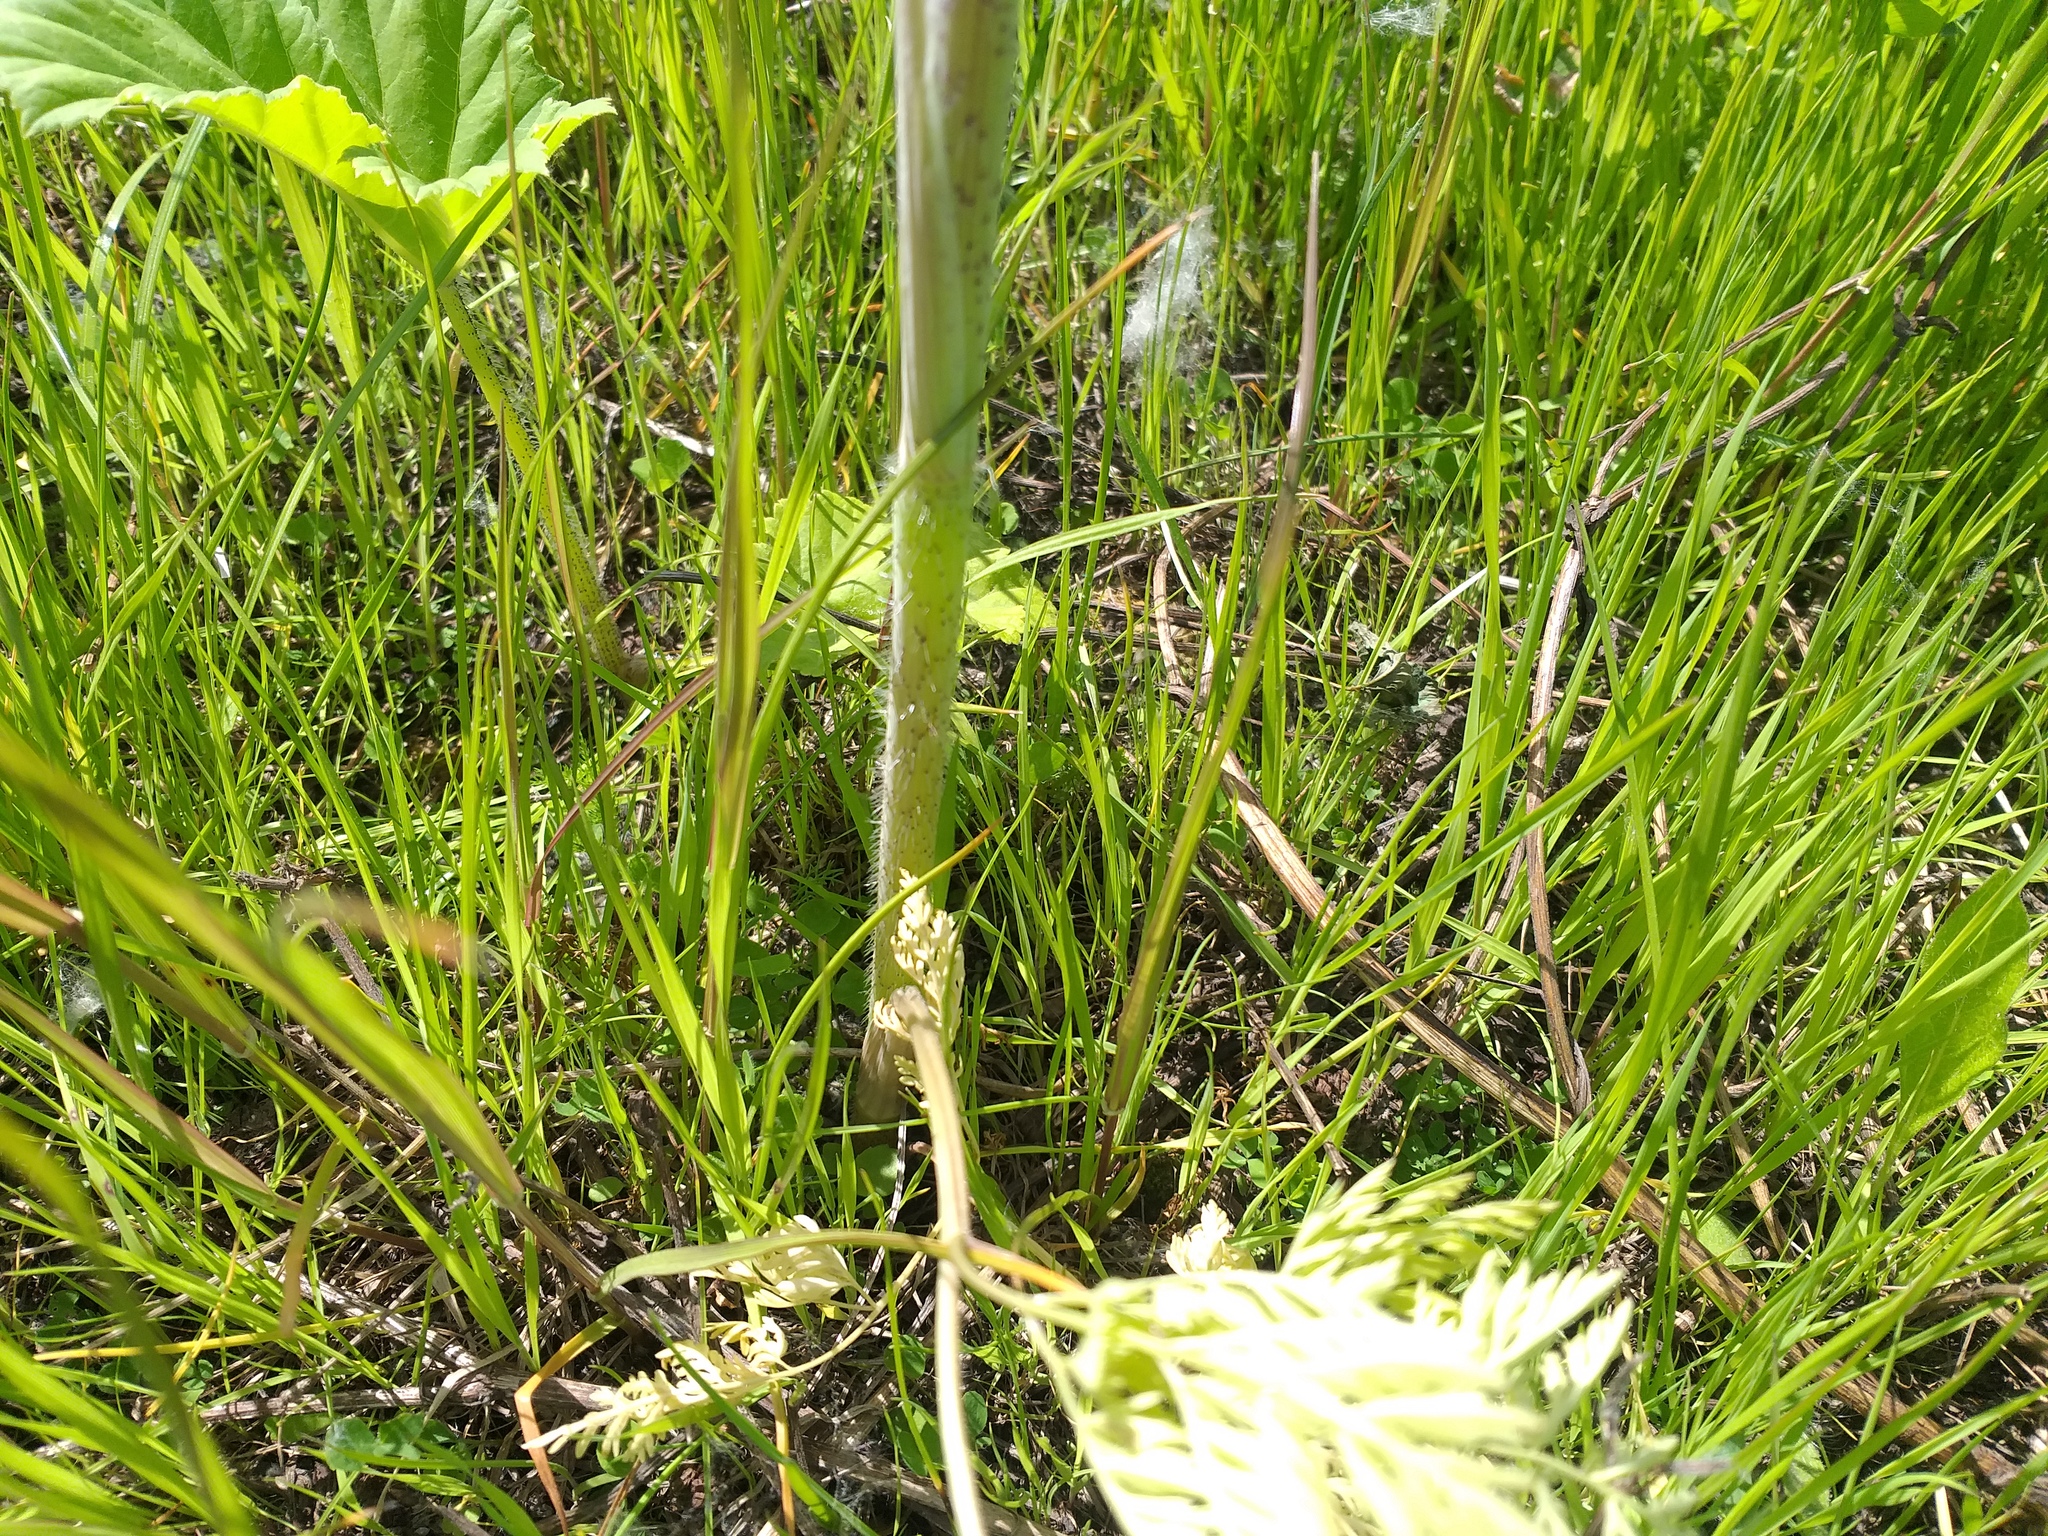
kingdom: Plantae
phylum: Tracheophyta
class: Magnoliopsida
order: Apiales
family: Apiaceae
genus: Chaerophyllum
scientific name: Chaerophyllum bulbosum
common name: Bulbous chervil
